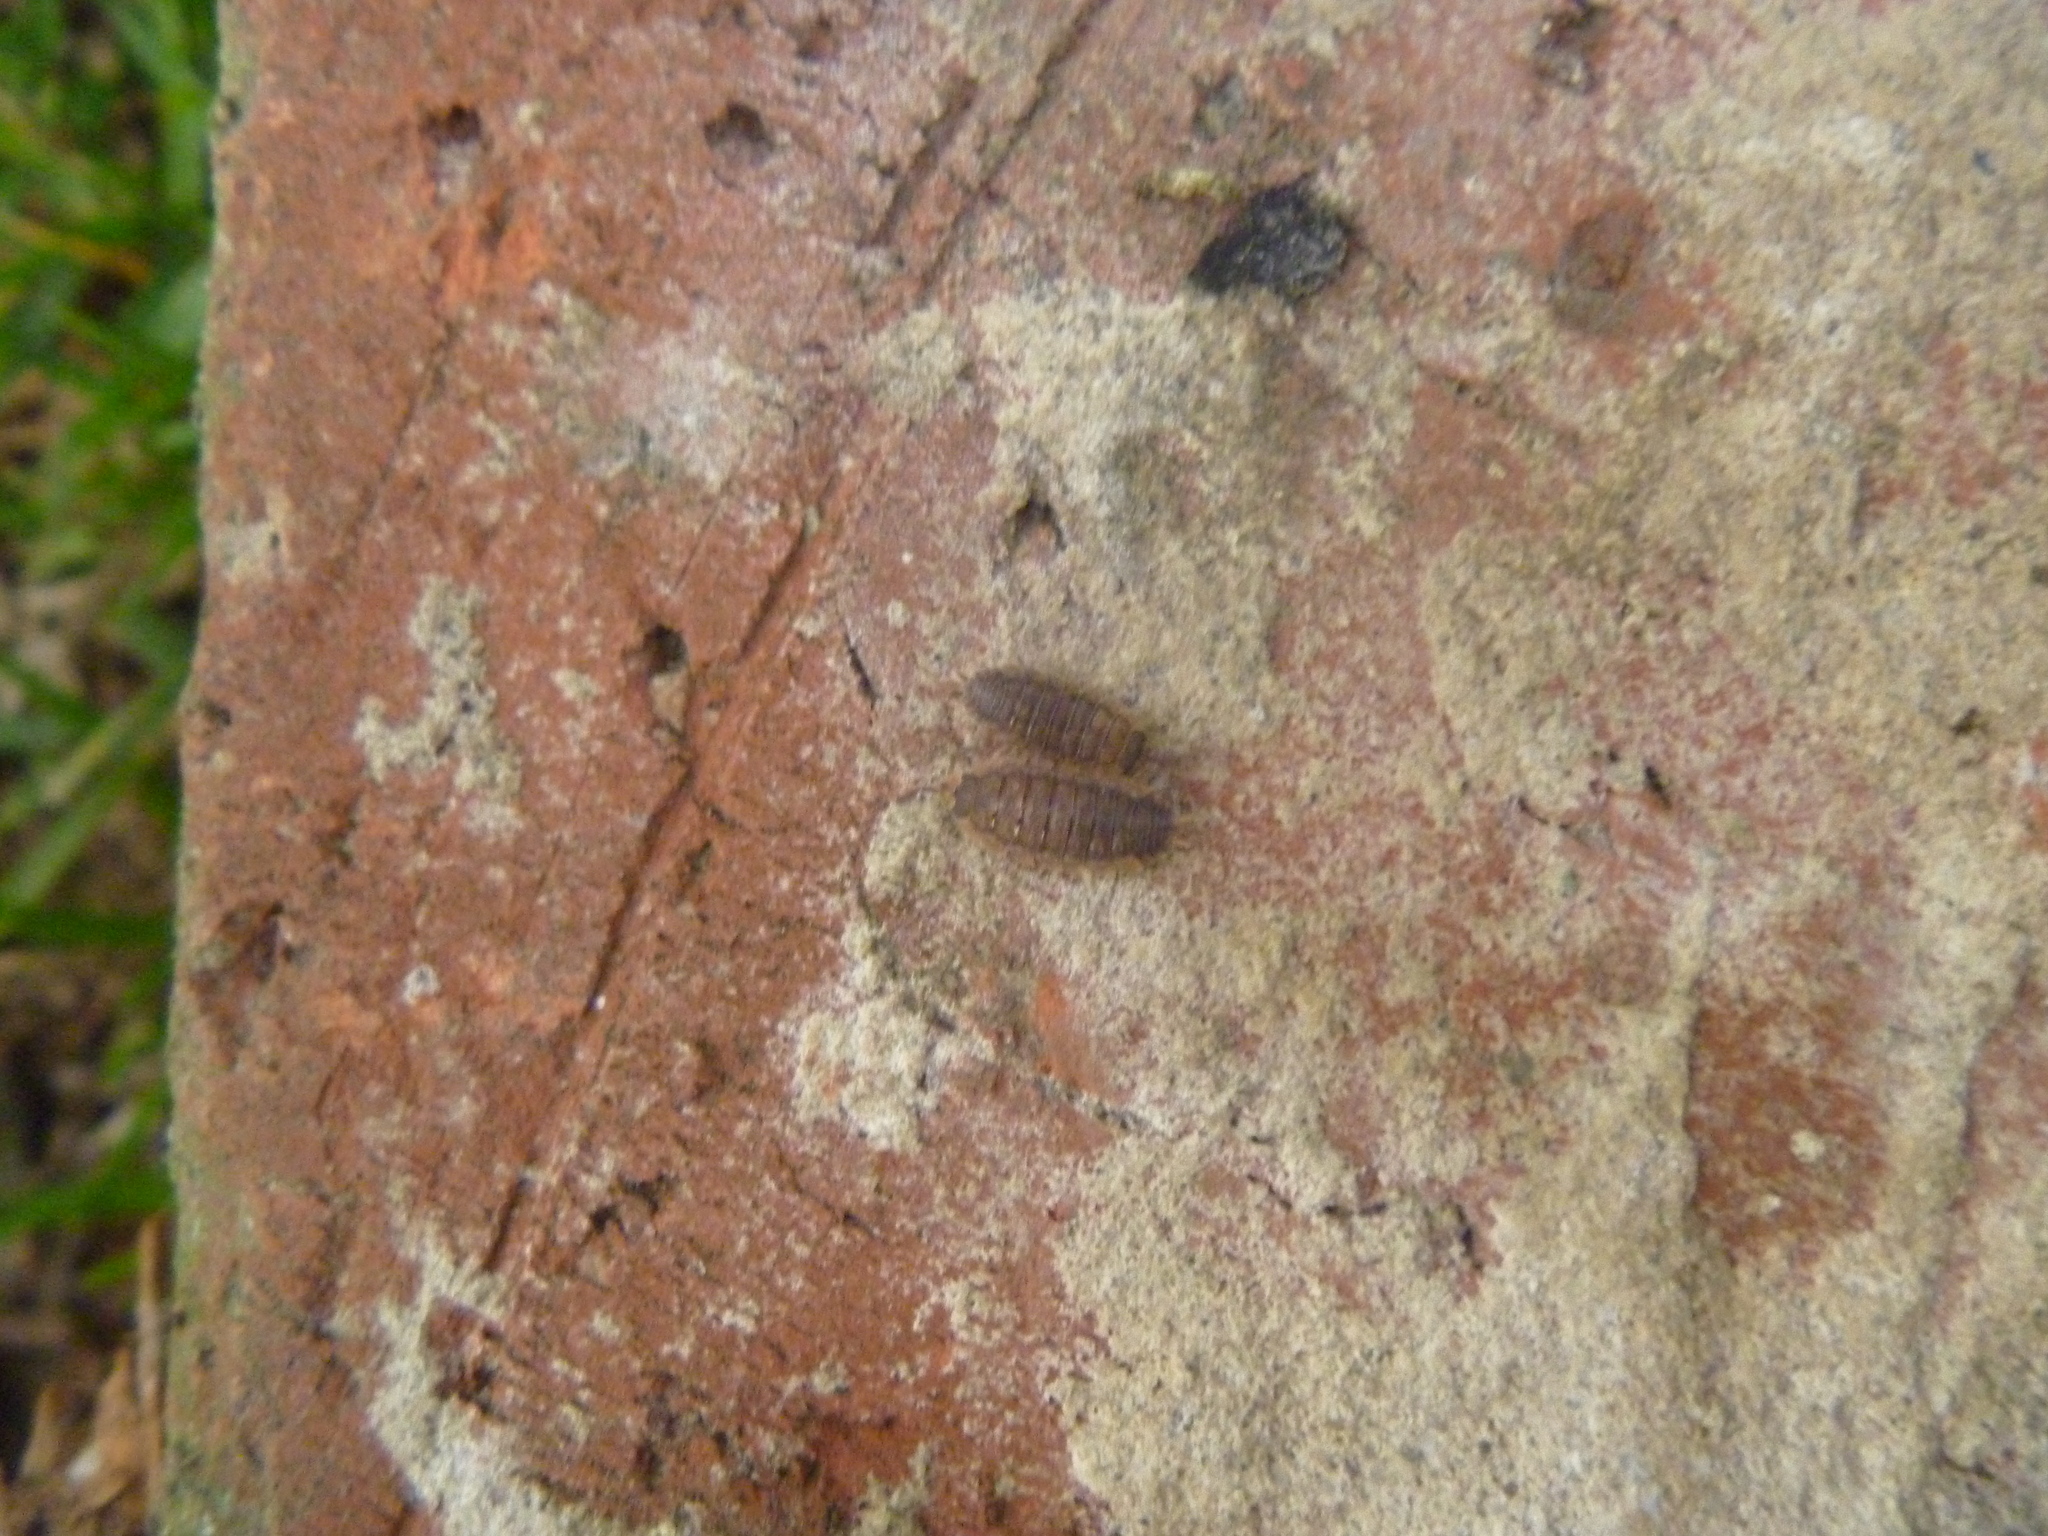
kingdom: Animalia
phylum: Arthropoda
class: Malacostraca
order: Isopoda
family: Porcellionidae
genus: Porcellio
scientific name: Porcellio scaber
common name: Common rough woodlouse
